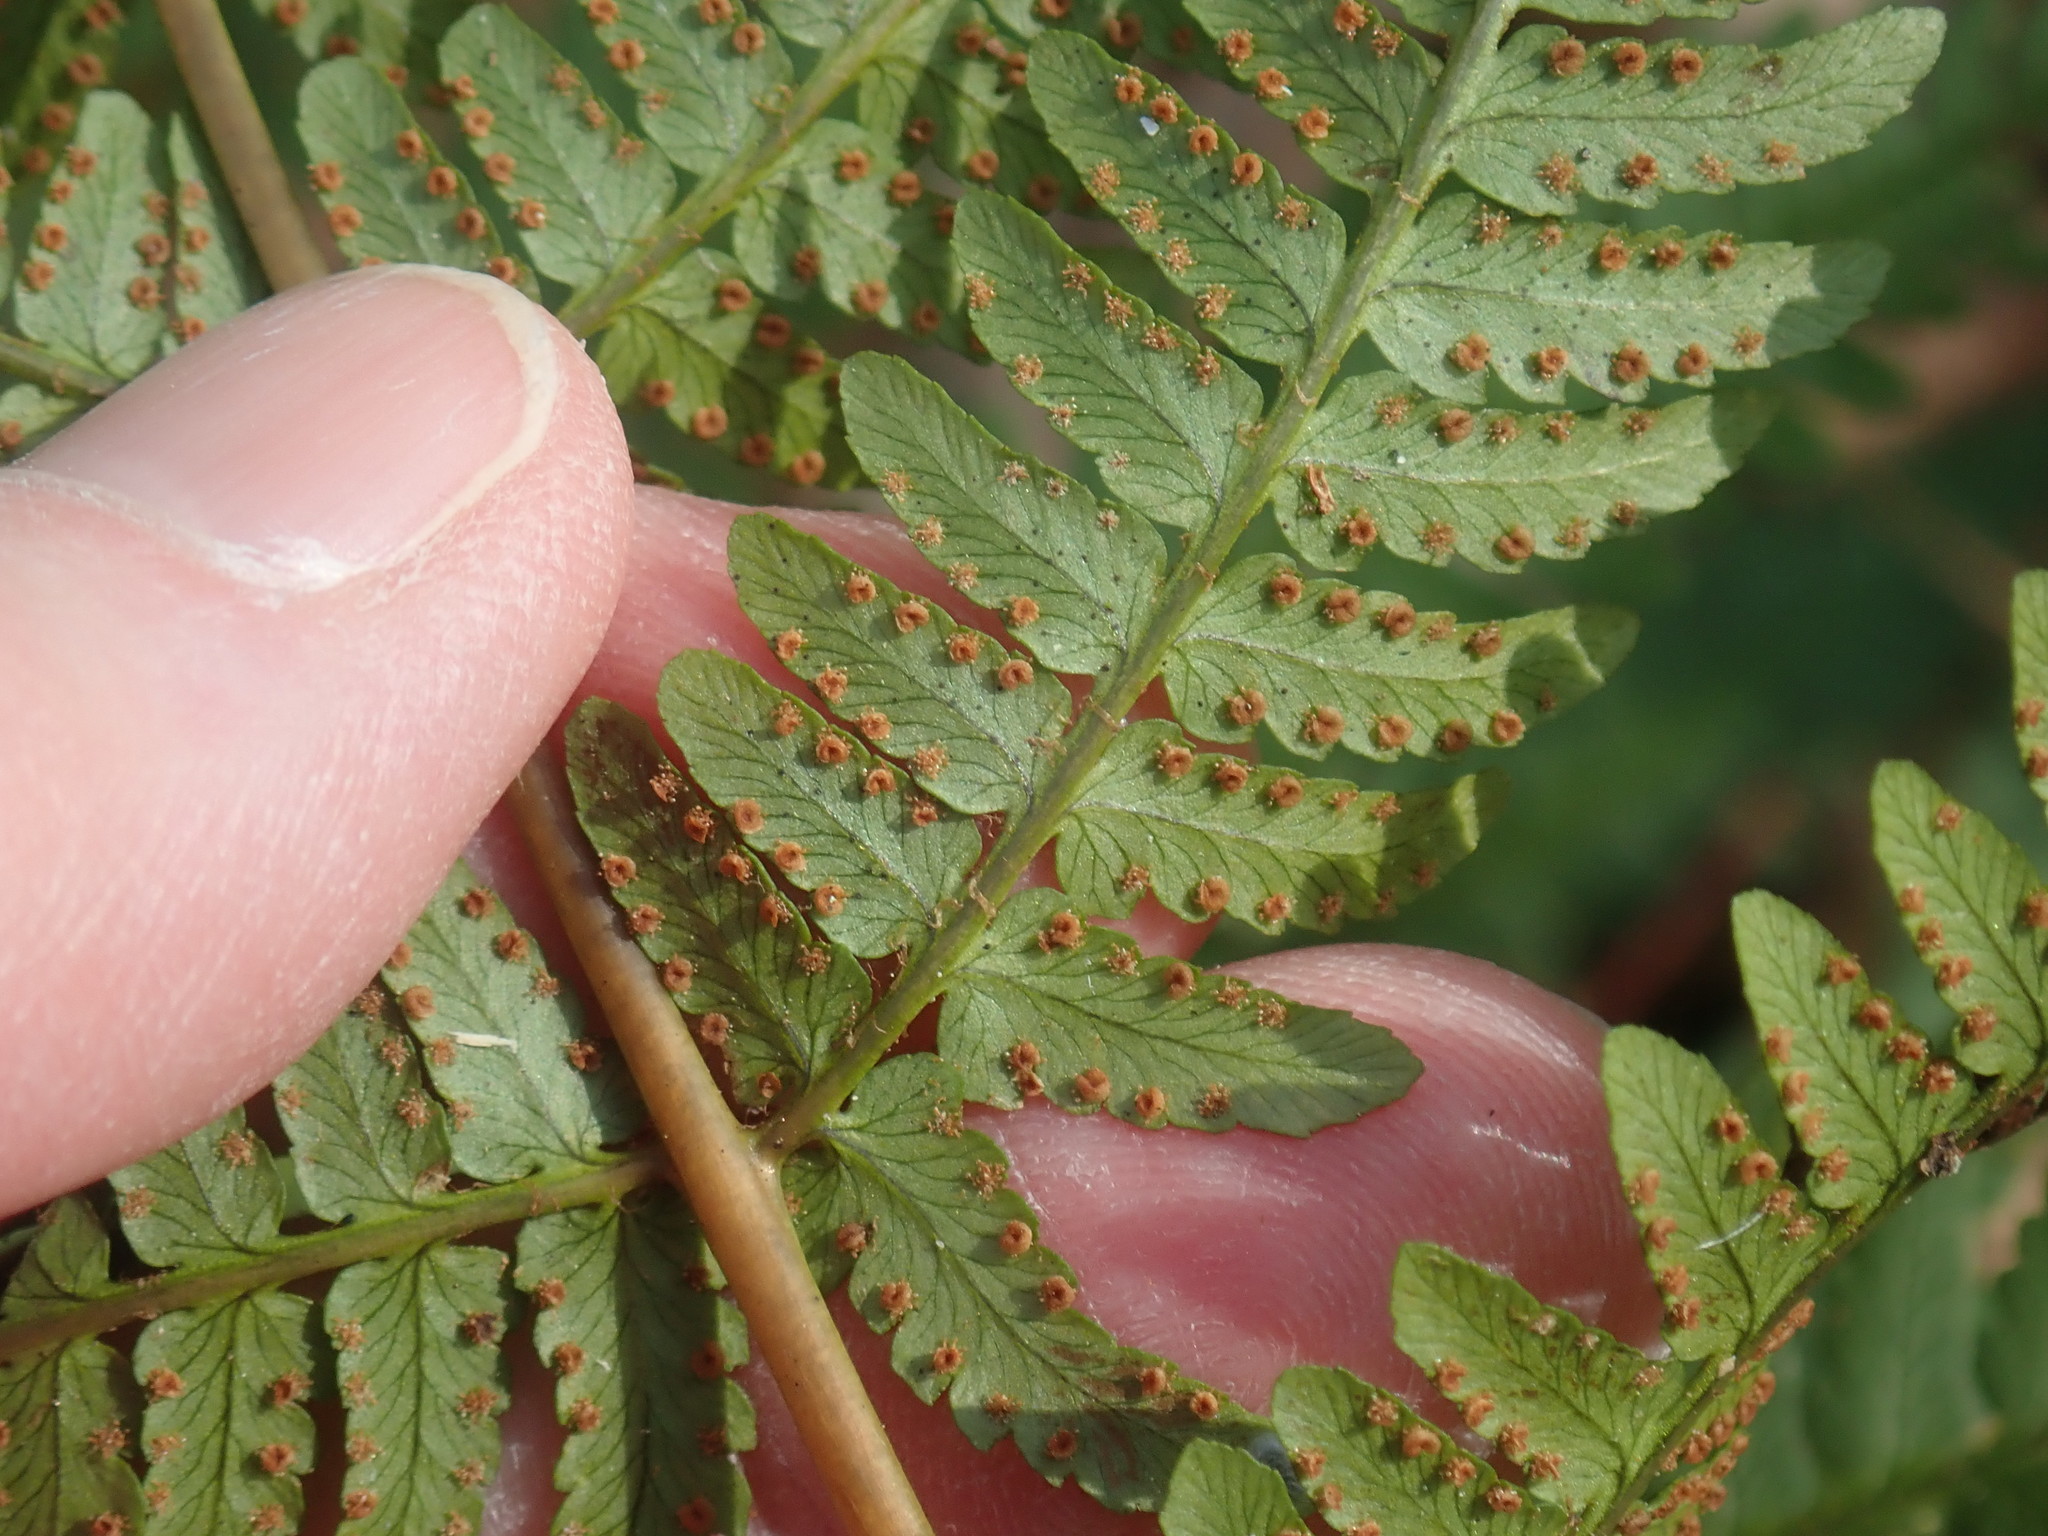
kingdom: Plantae
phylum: Tracheophyta
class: Polypodiopsida
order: Polypodiales
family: Dryopteridaceae
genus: Dryopteris
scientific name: Dryopteris marginalis
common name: Marginal wood fern
